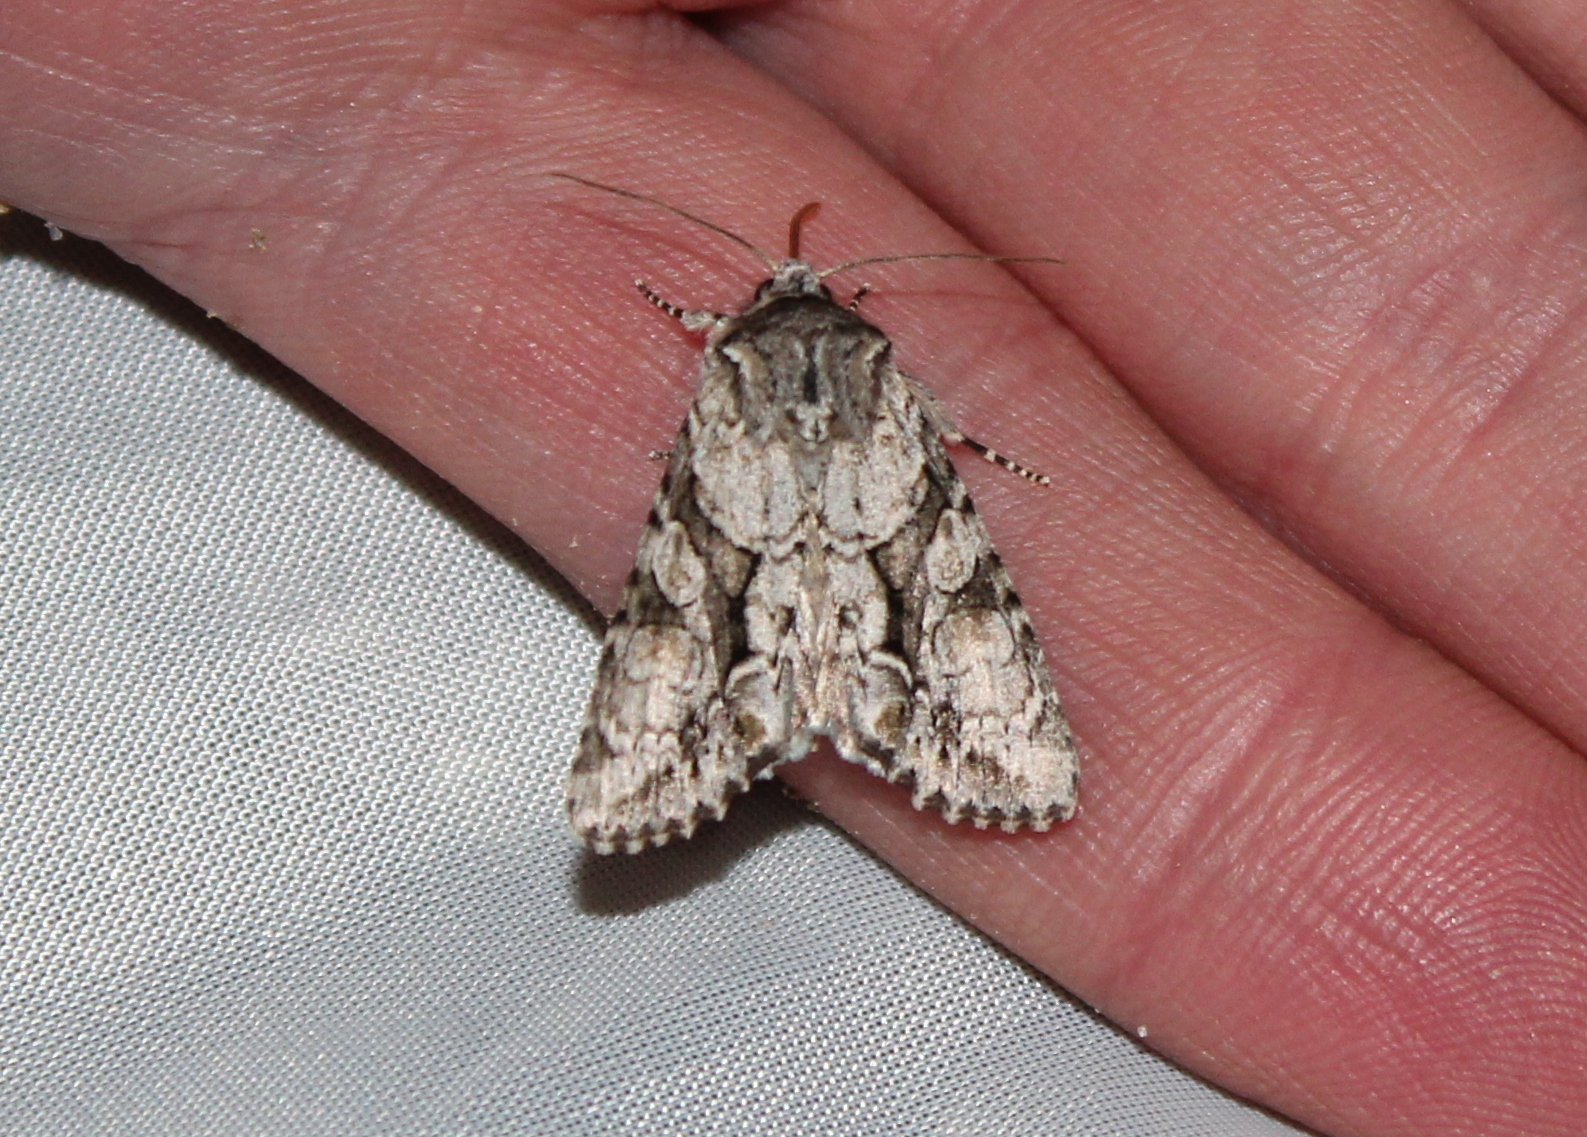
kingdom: Animalia
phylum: Arthropoda
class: Insecta
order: Lepidoptera
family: Noctuidae
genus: Achatia
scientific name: Achatia distincta
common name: Distinct quaker
